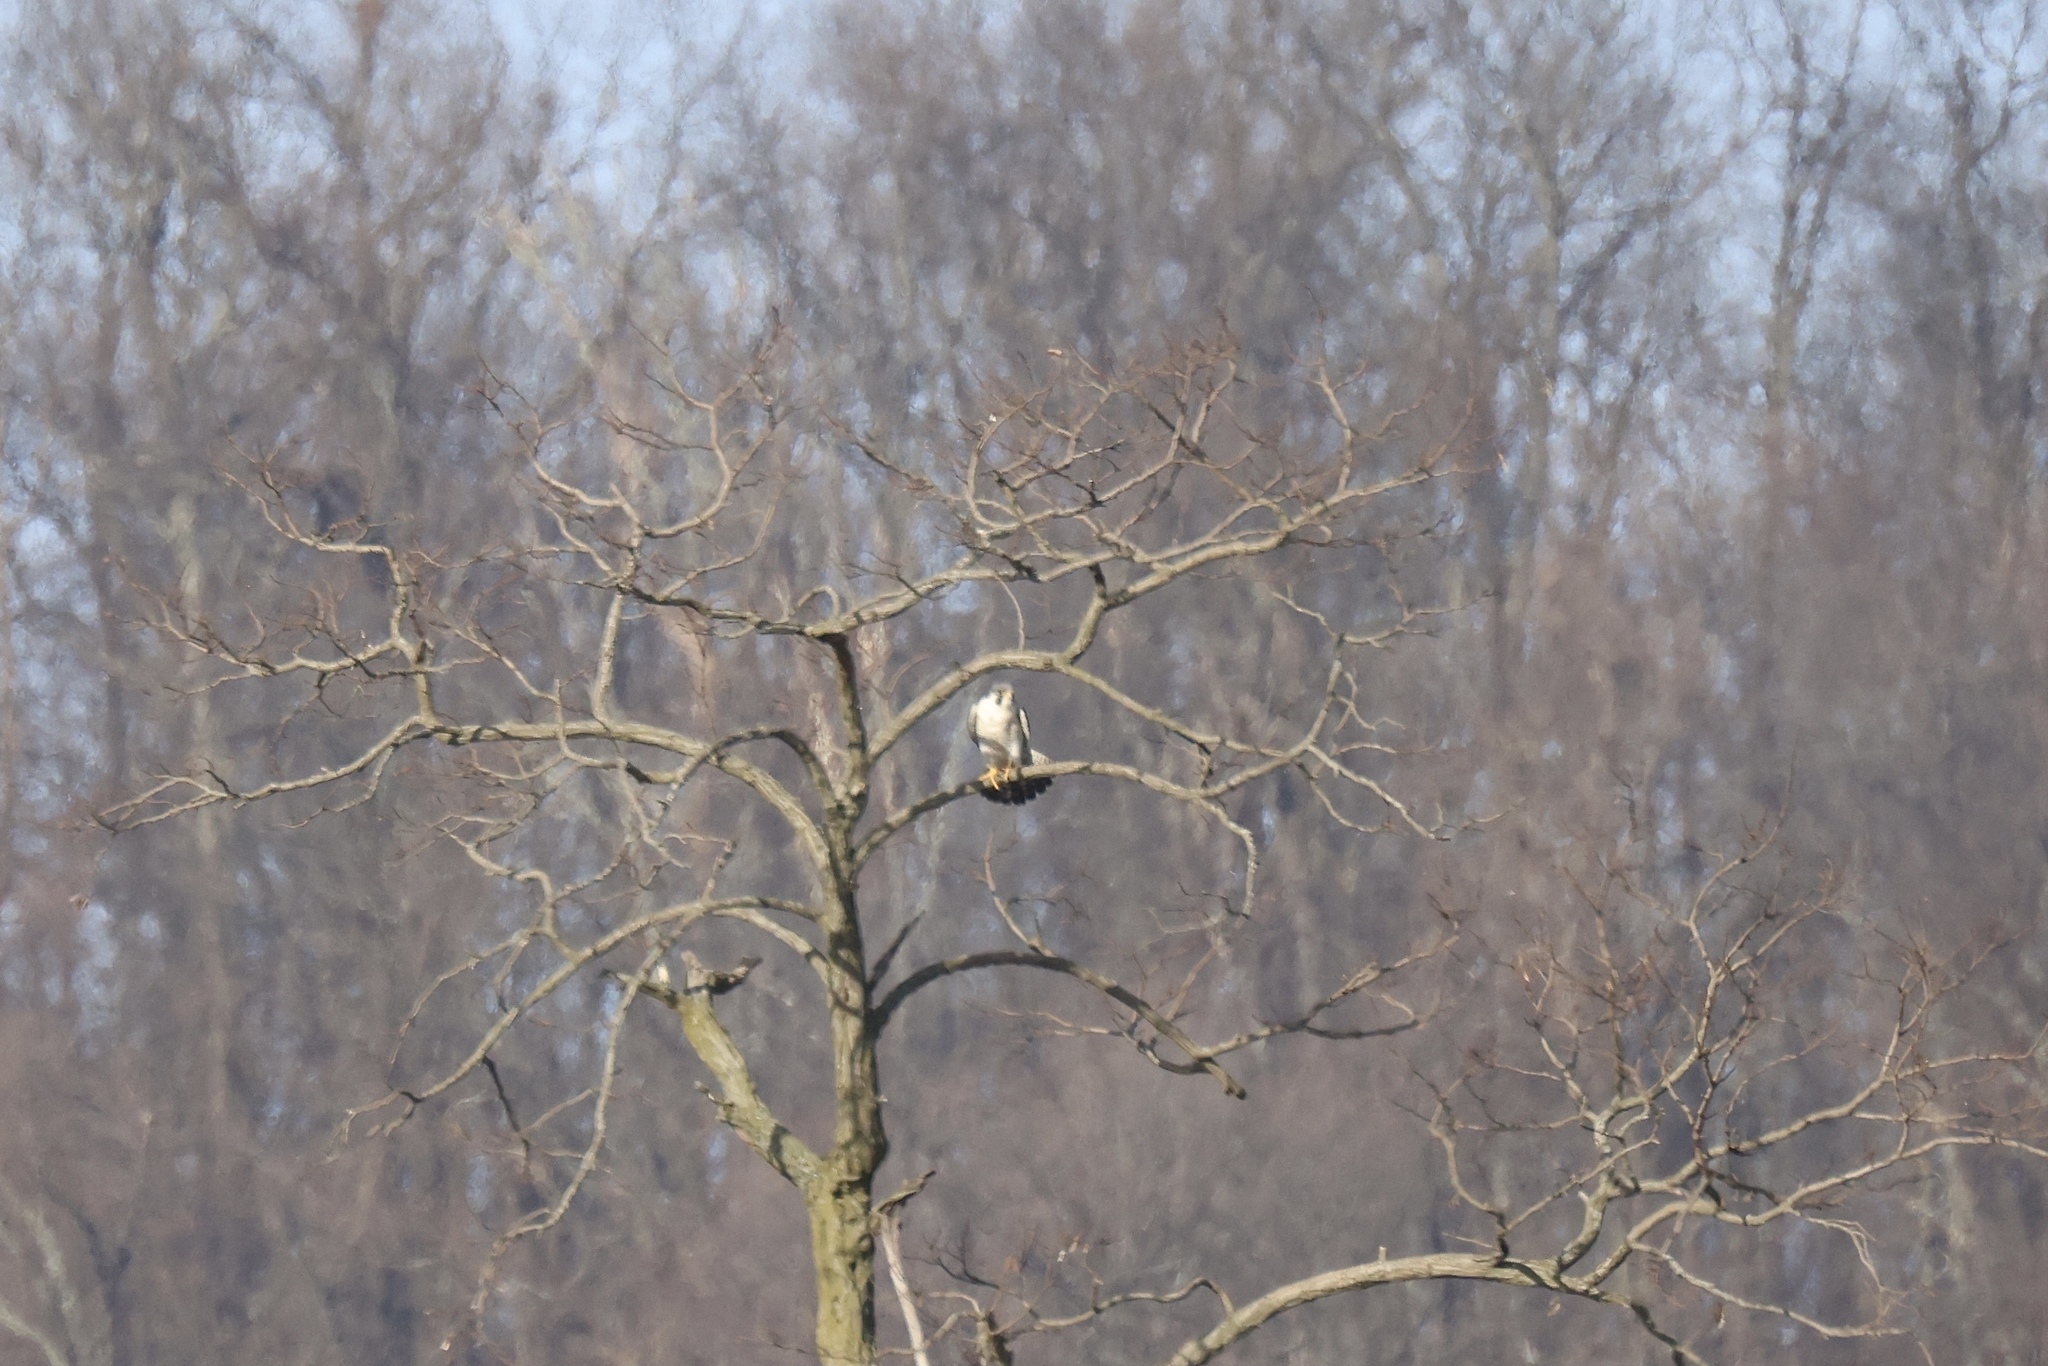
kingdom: Animalia
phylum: Chordata
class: Aves
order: Falconiformes
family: Falconidae
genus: Falco
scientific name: Falco peregrinus
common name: Peregrine falcon
